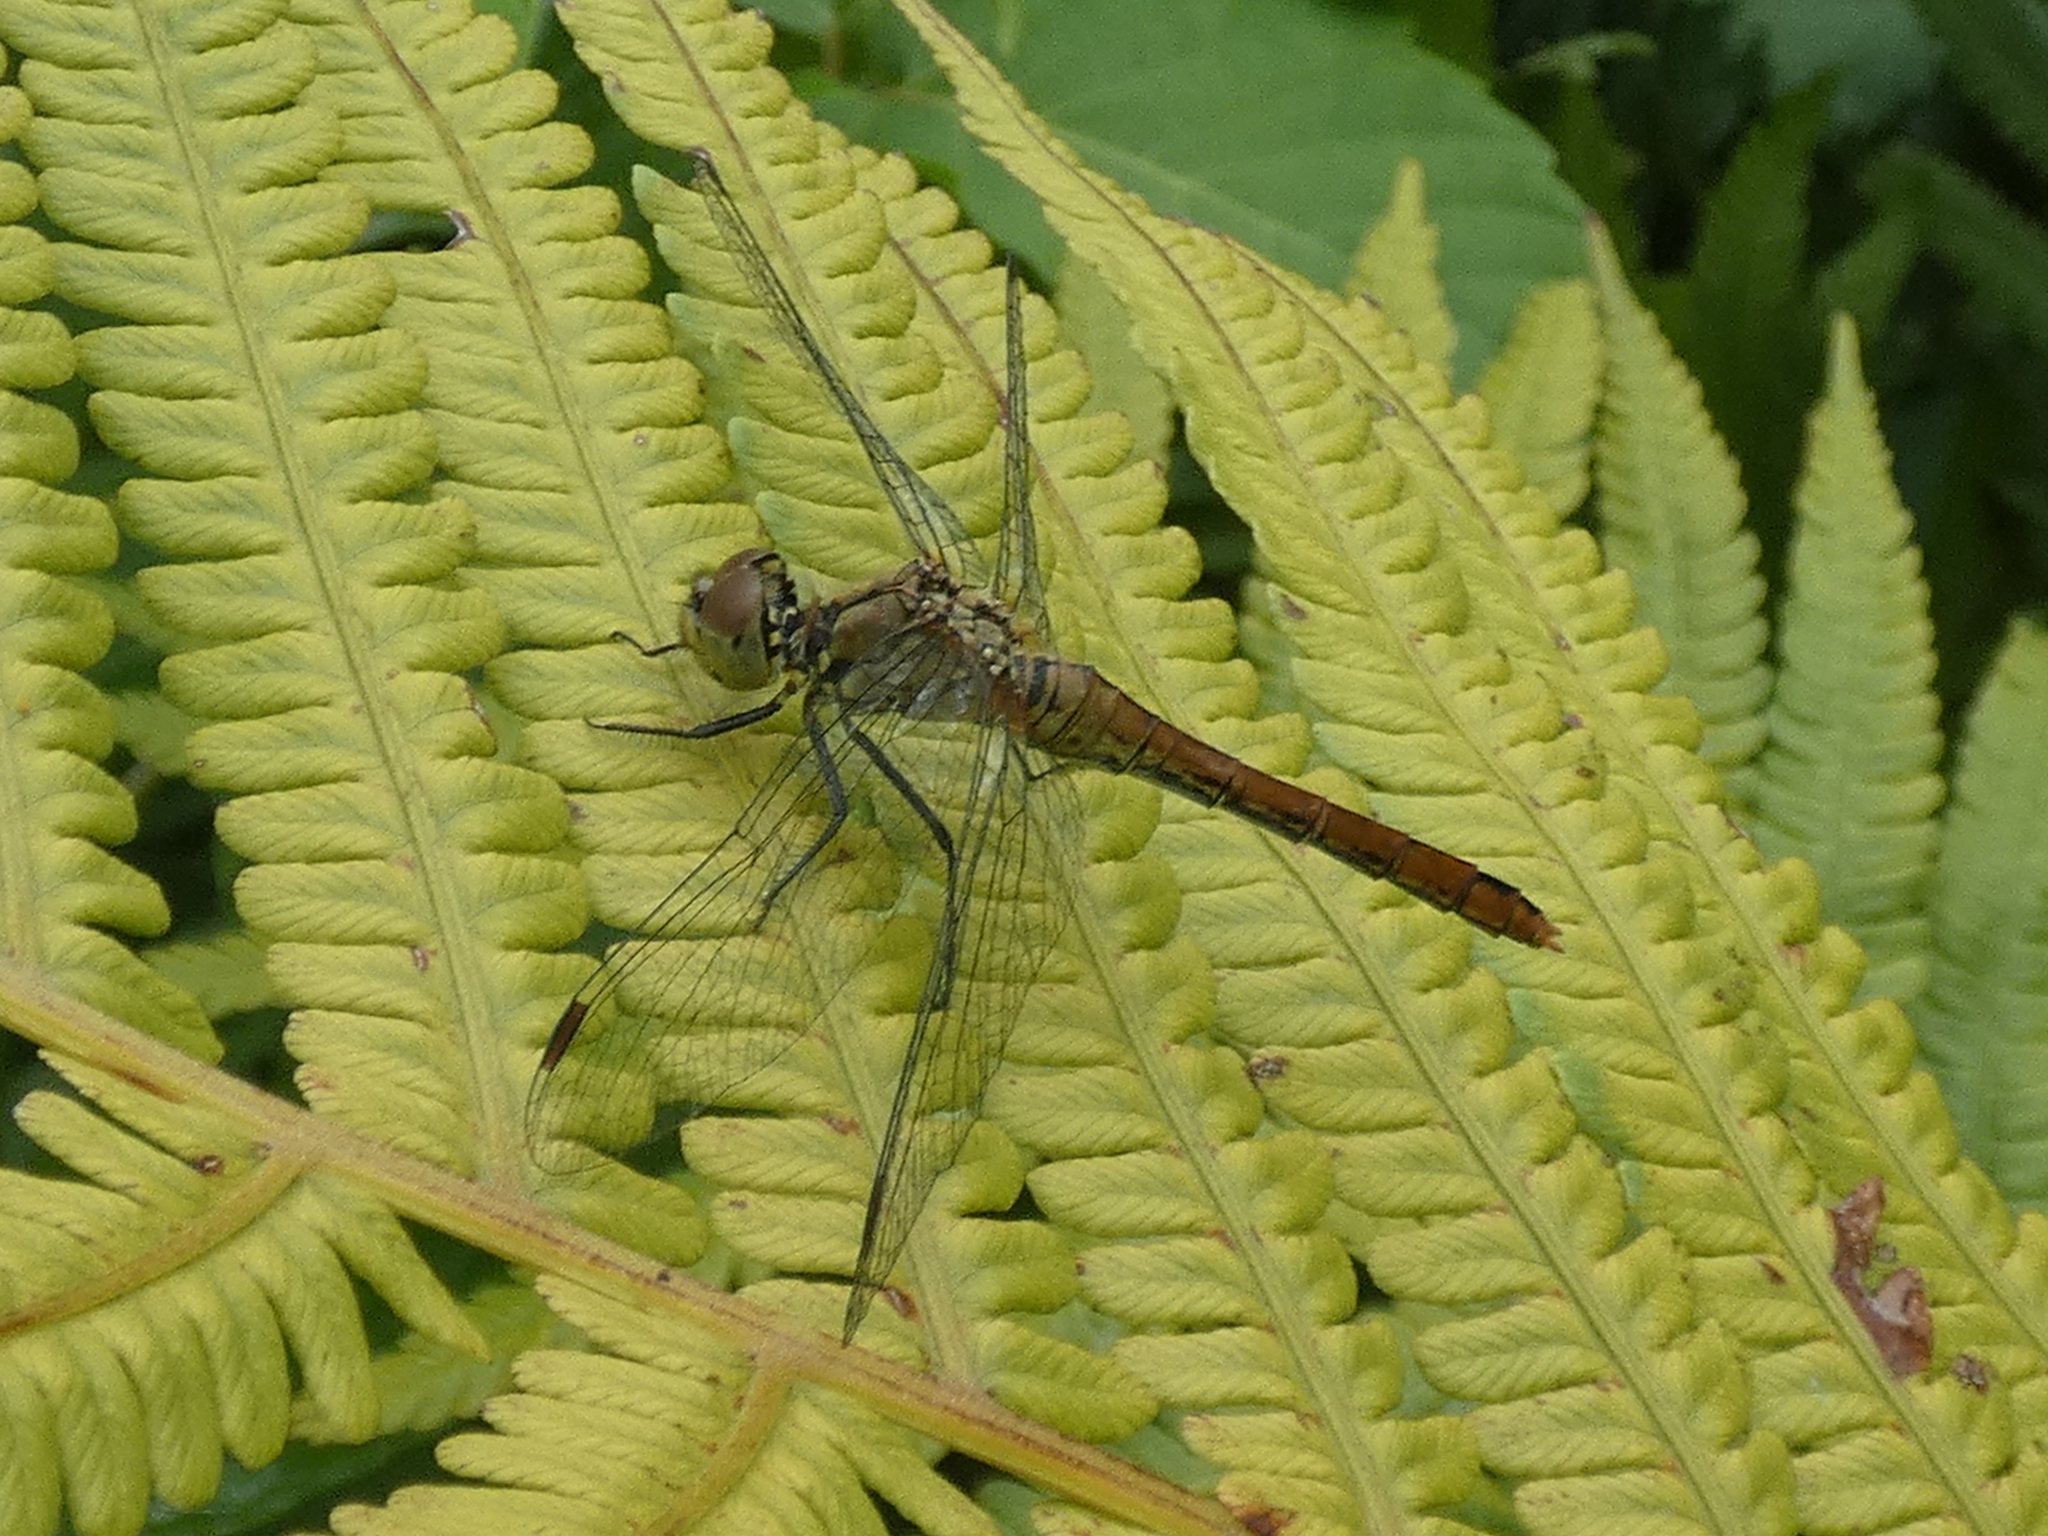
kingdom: Animalia
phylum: Arthropoda
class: Insecta
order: Odonata
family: Libellulidae
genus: Sympetrum
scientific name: Sympetrum sanguineum
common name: Ruddy darter
